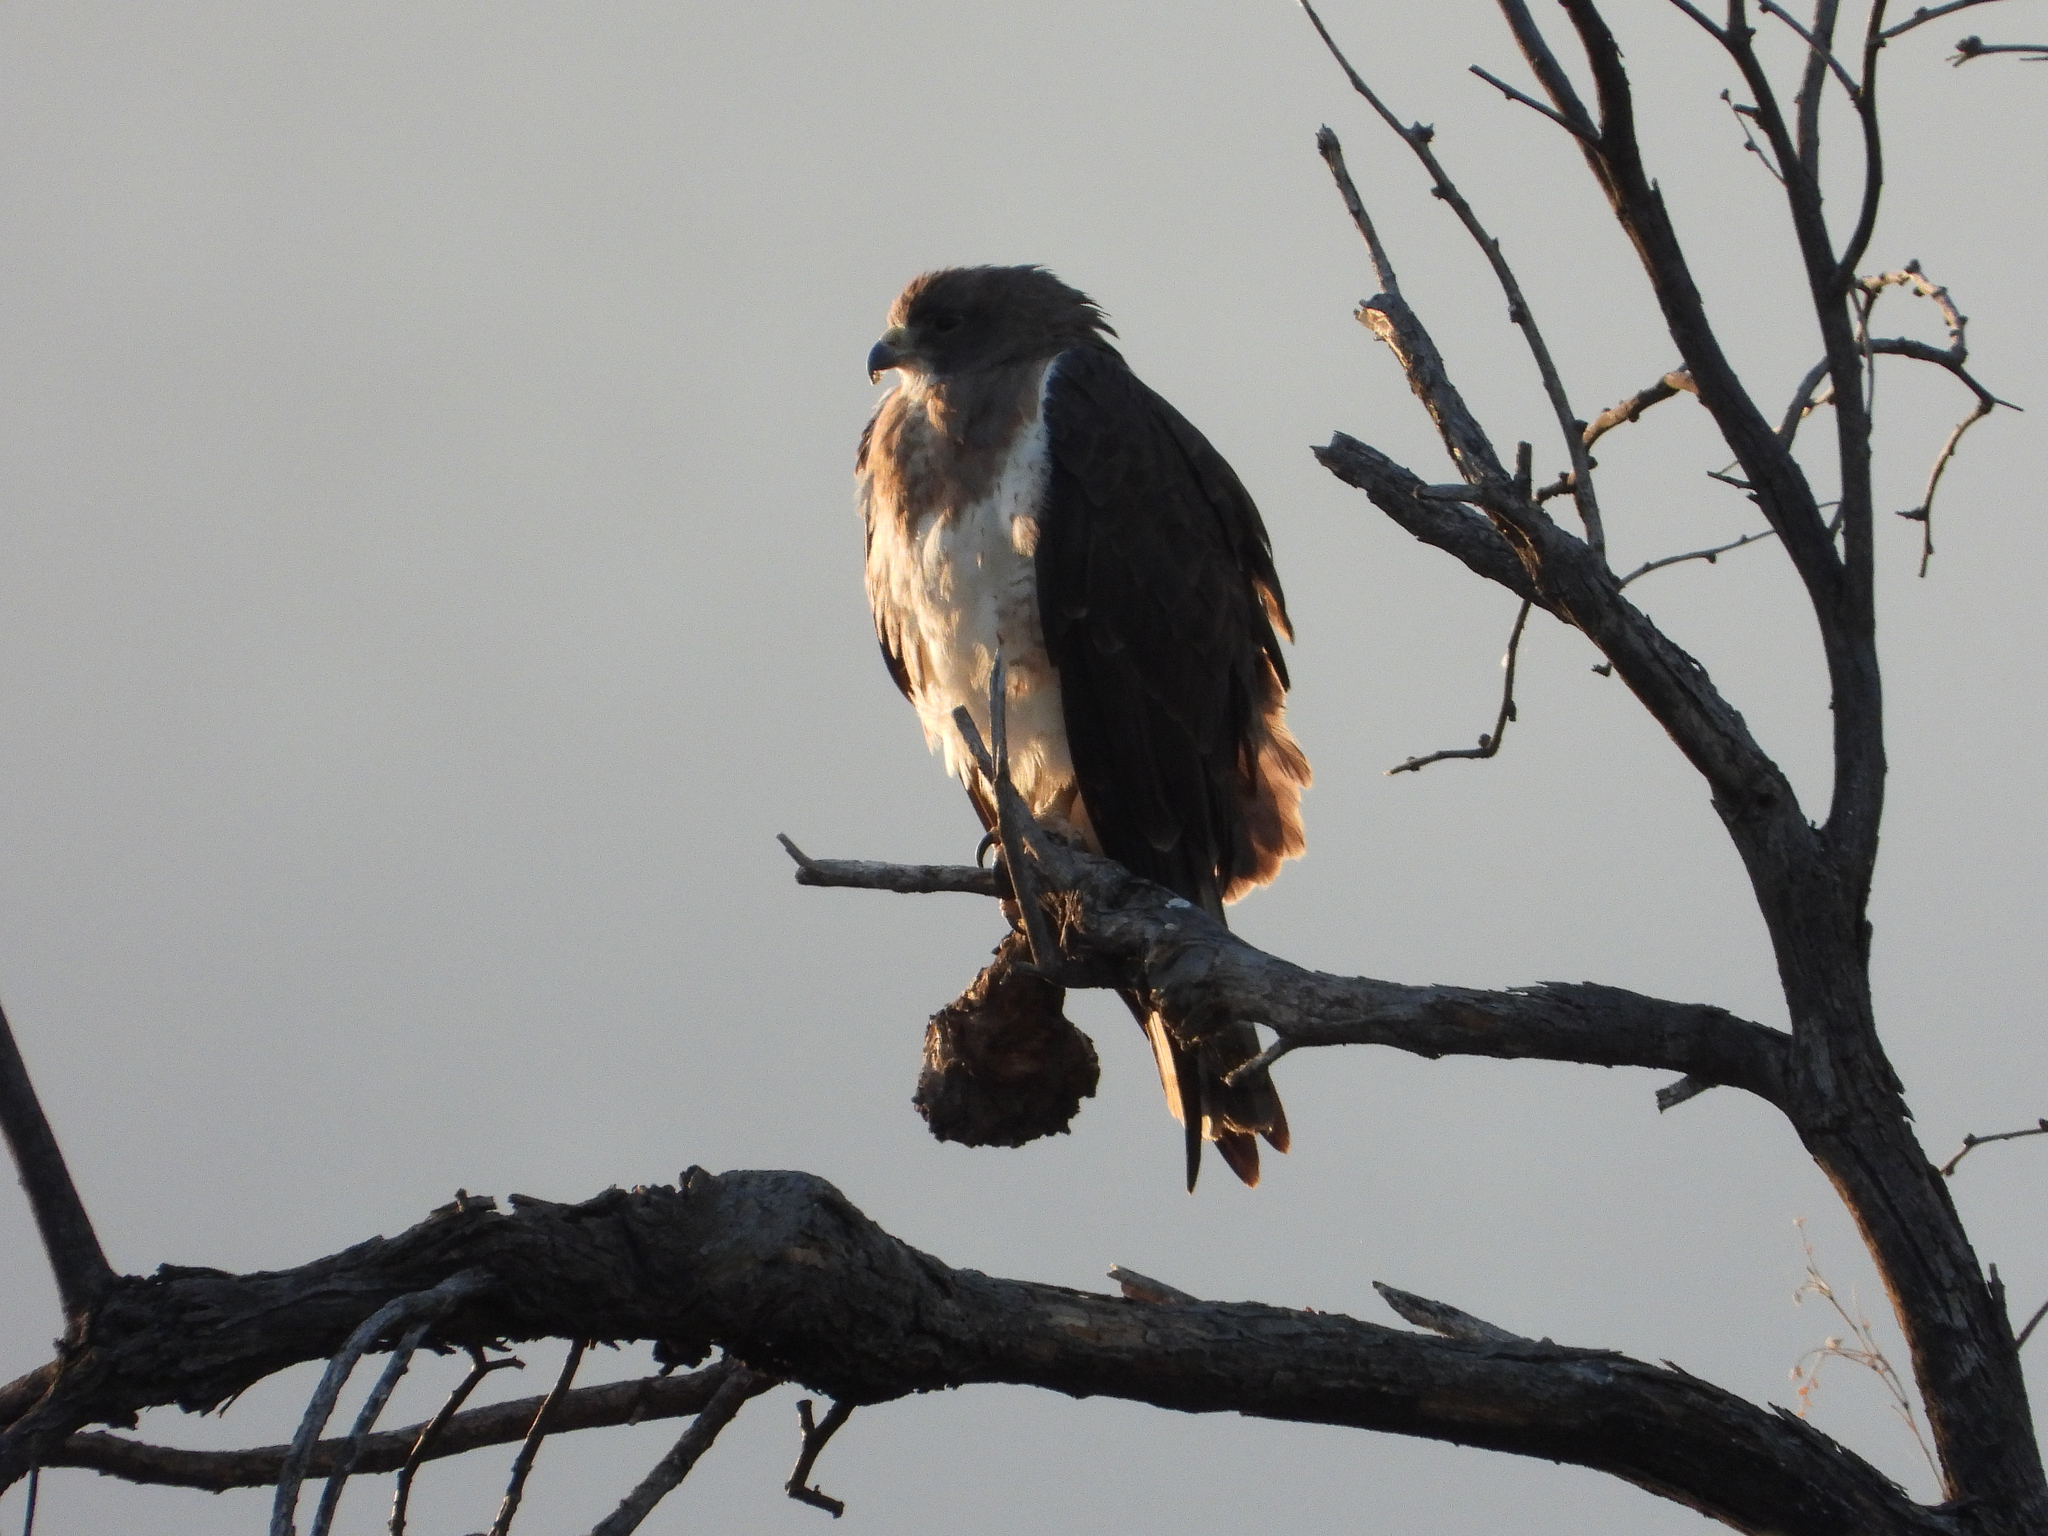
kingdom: Animalia
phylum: Chordata
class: Aves
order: Accipitriformes
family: Accipitridae
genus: Buteo
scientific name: Buteo swainsoni
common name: Swainson's hawk
